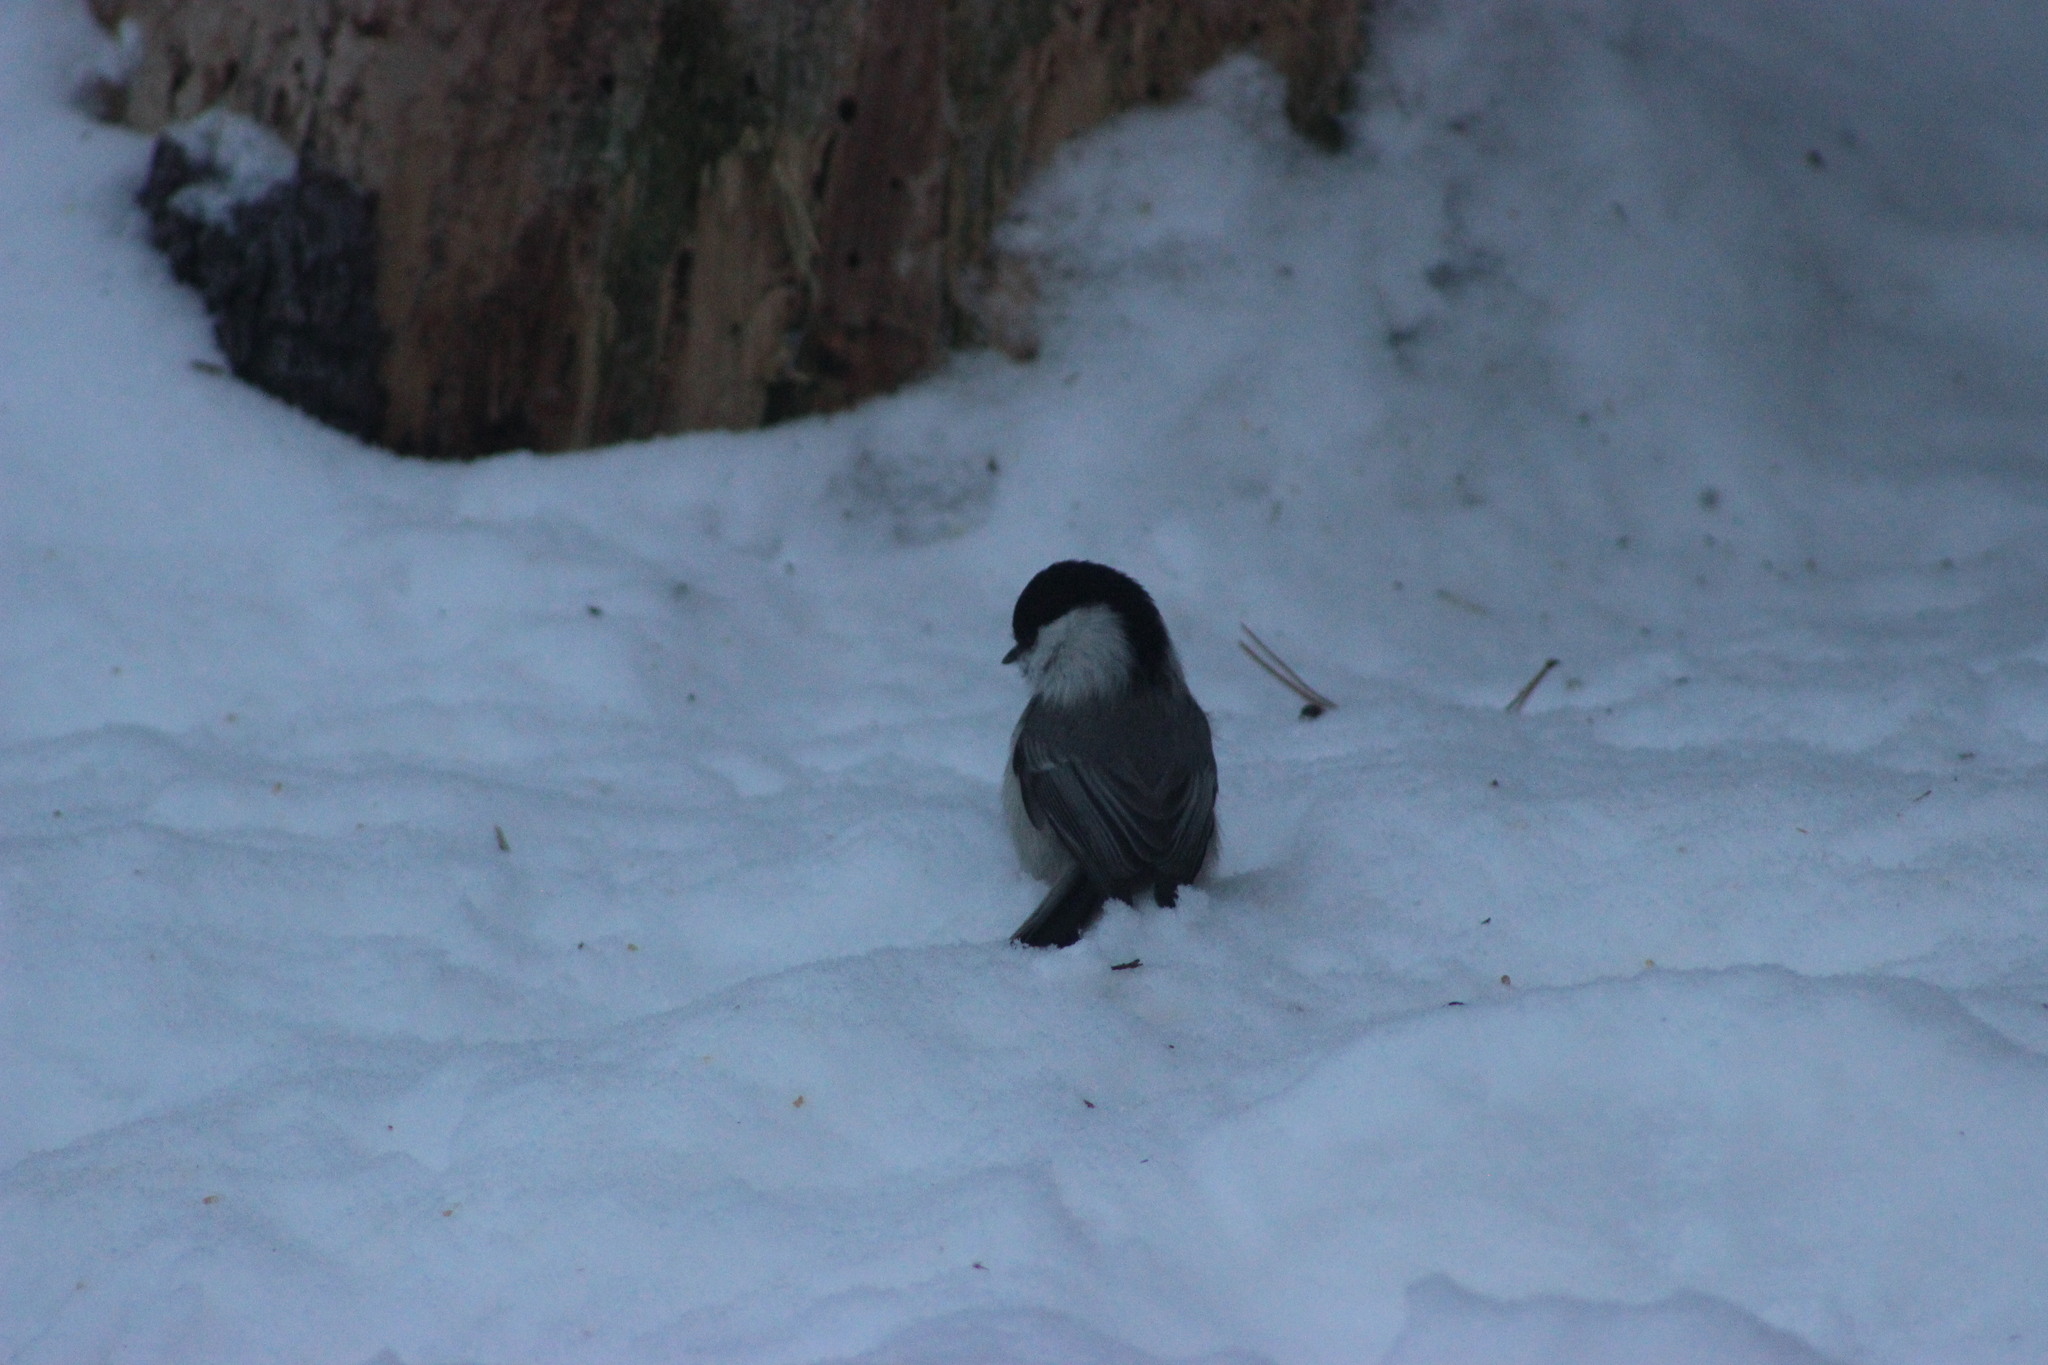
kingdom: Animalia
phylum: Chordata
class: Aves
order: Passeriformes
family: Paridae
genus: Poecile
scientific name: Poecile montanus
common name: Willow tit
